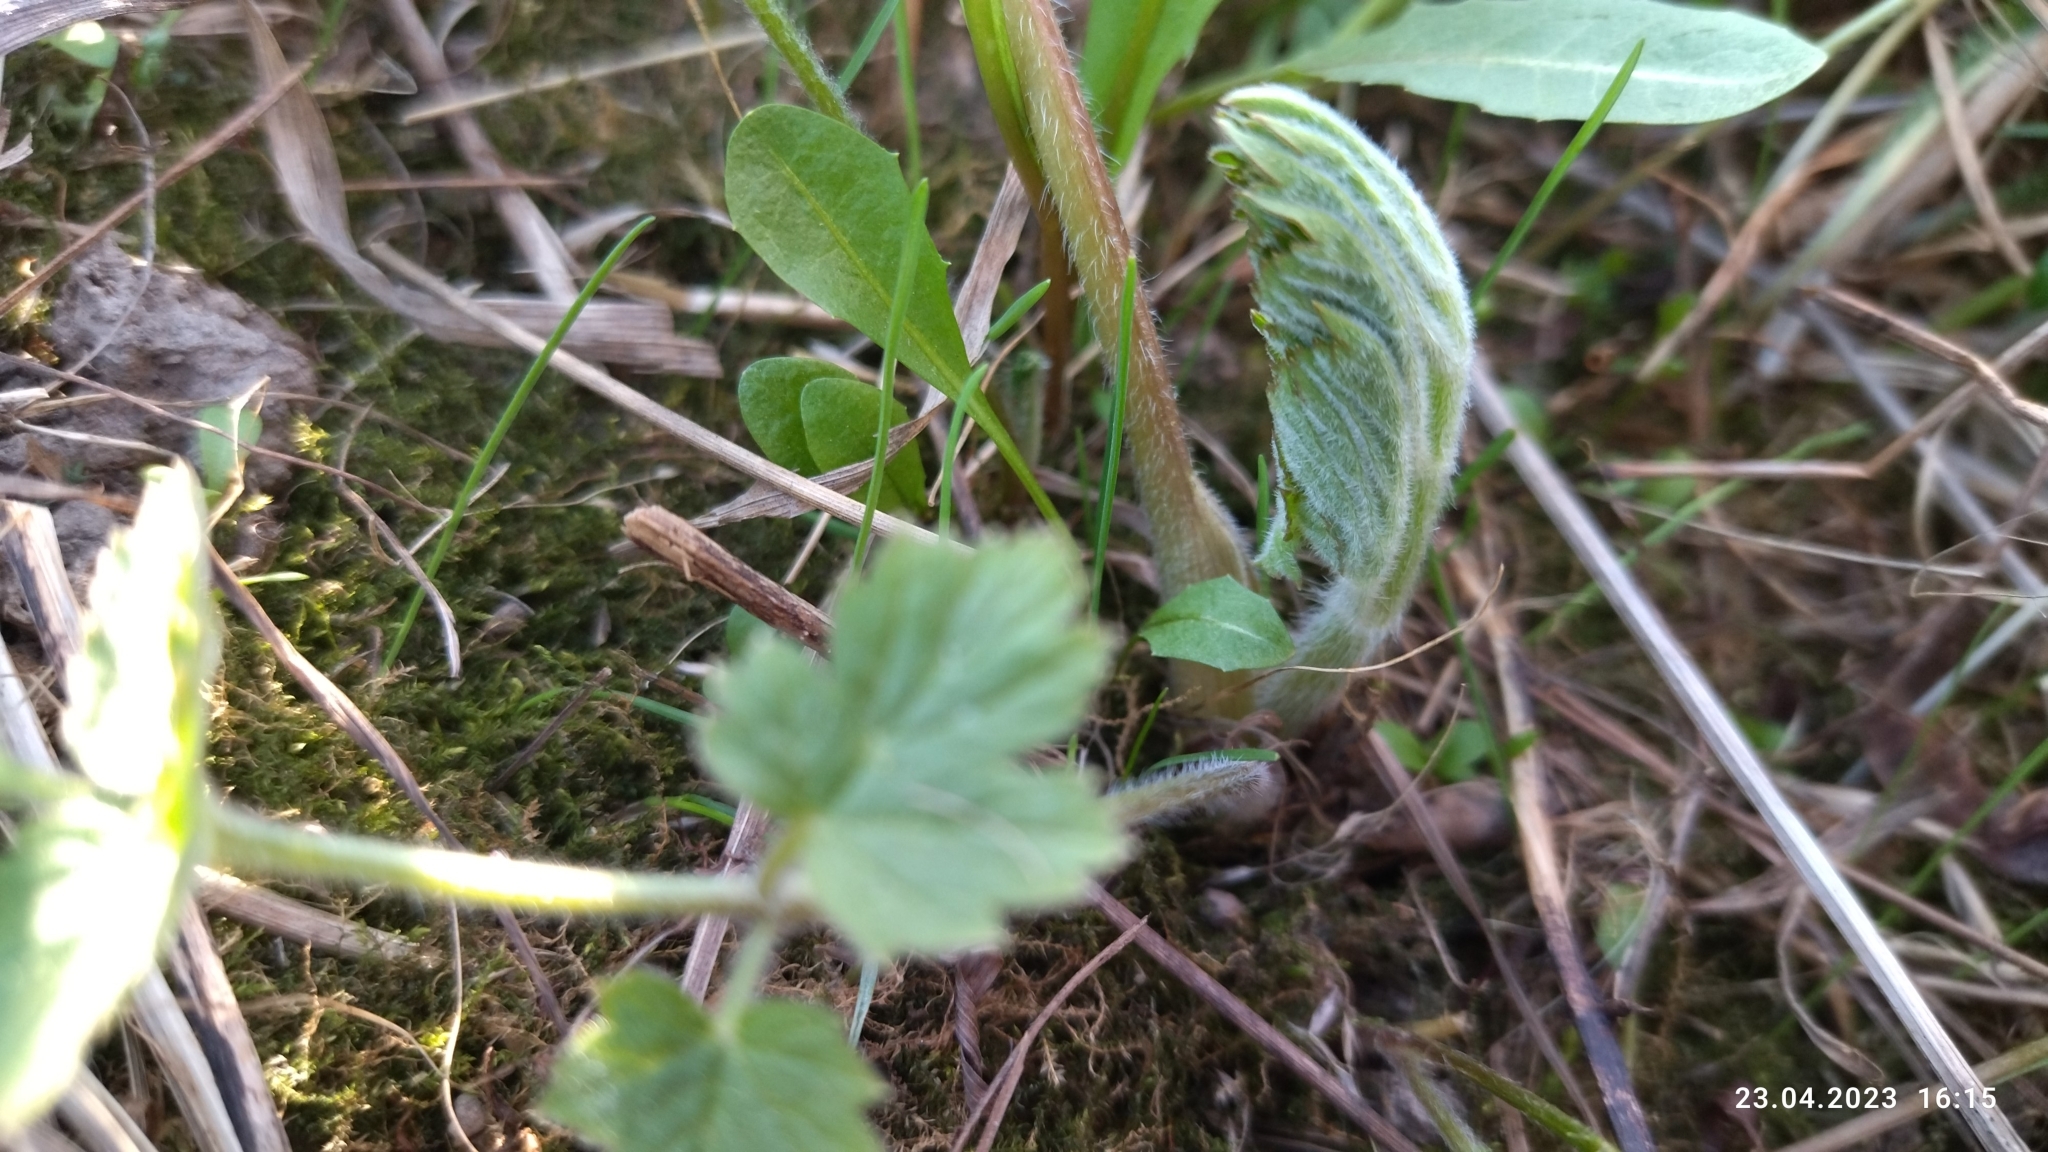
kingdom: Plantae
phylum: Tracheophyta
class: Magnoliopsida
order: Apiales
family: Apiaceae
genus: Heracleum
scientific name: Heracleum sphondylium
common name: Hogweed
